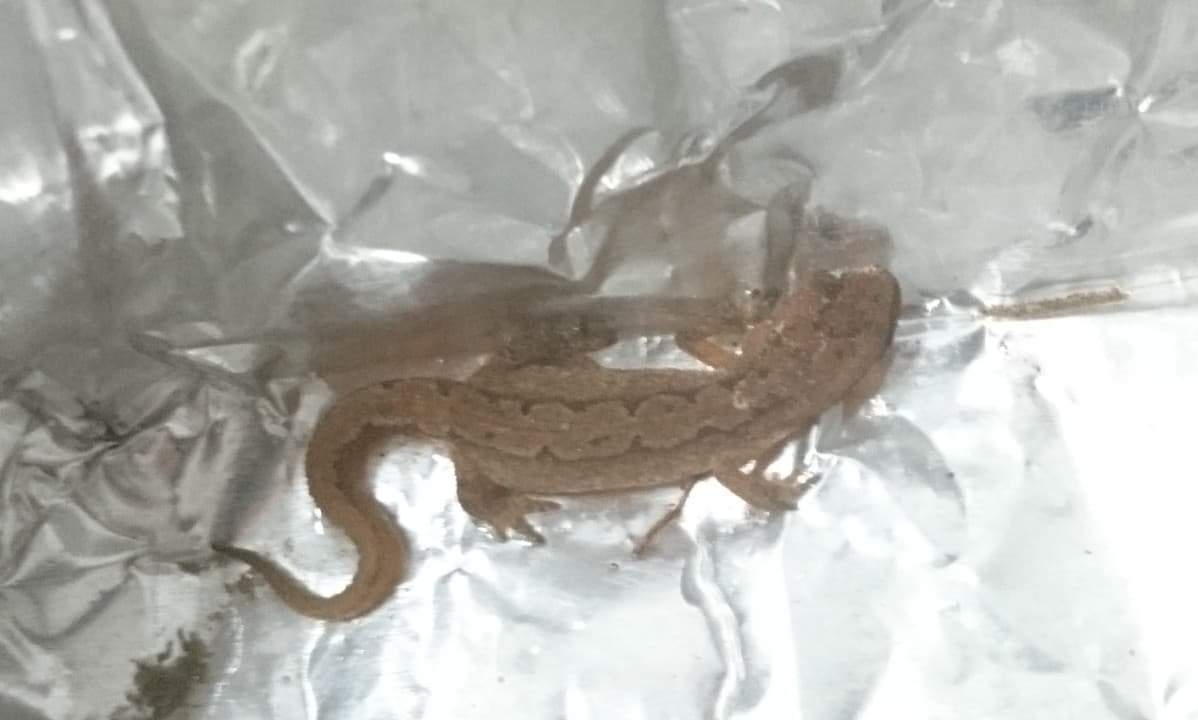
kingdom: Animalia
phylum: Chordata
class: Amphibia
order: Caudata
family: Salamandridae
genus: Lissotriton
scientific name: Lissotriton helveticus
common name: Palmate newt
